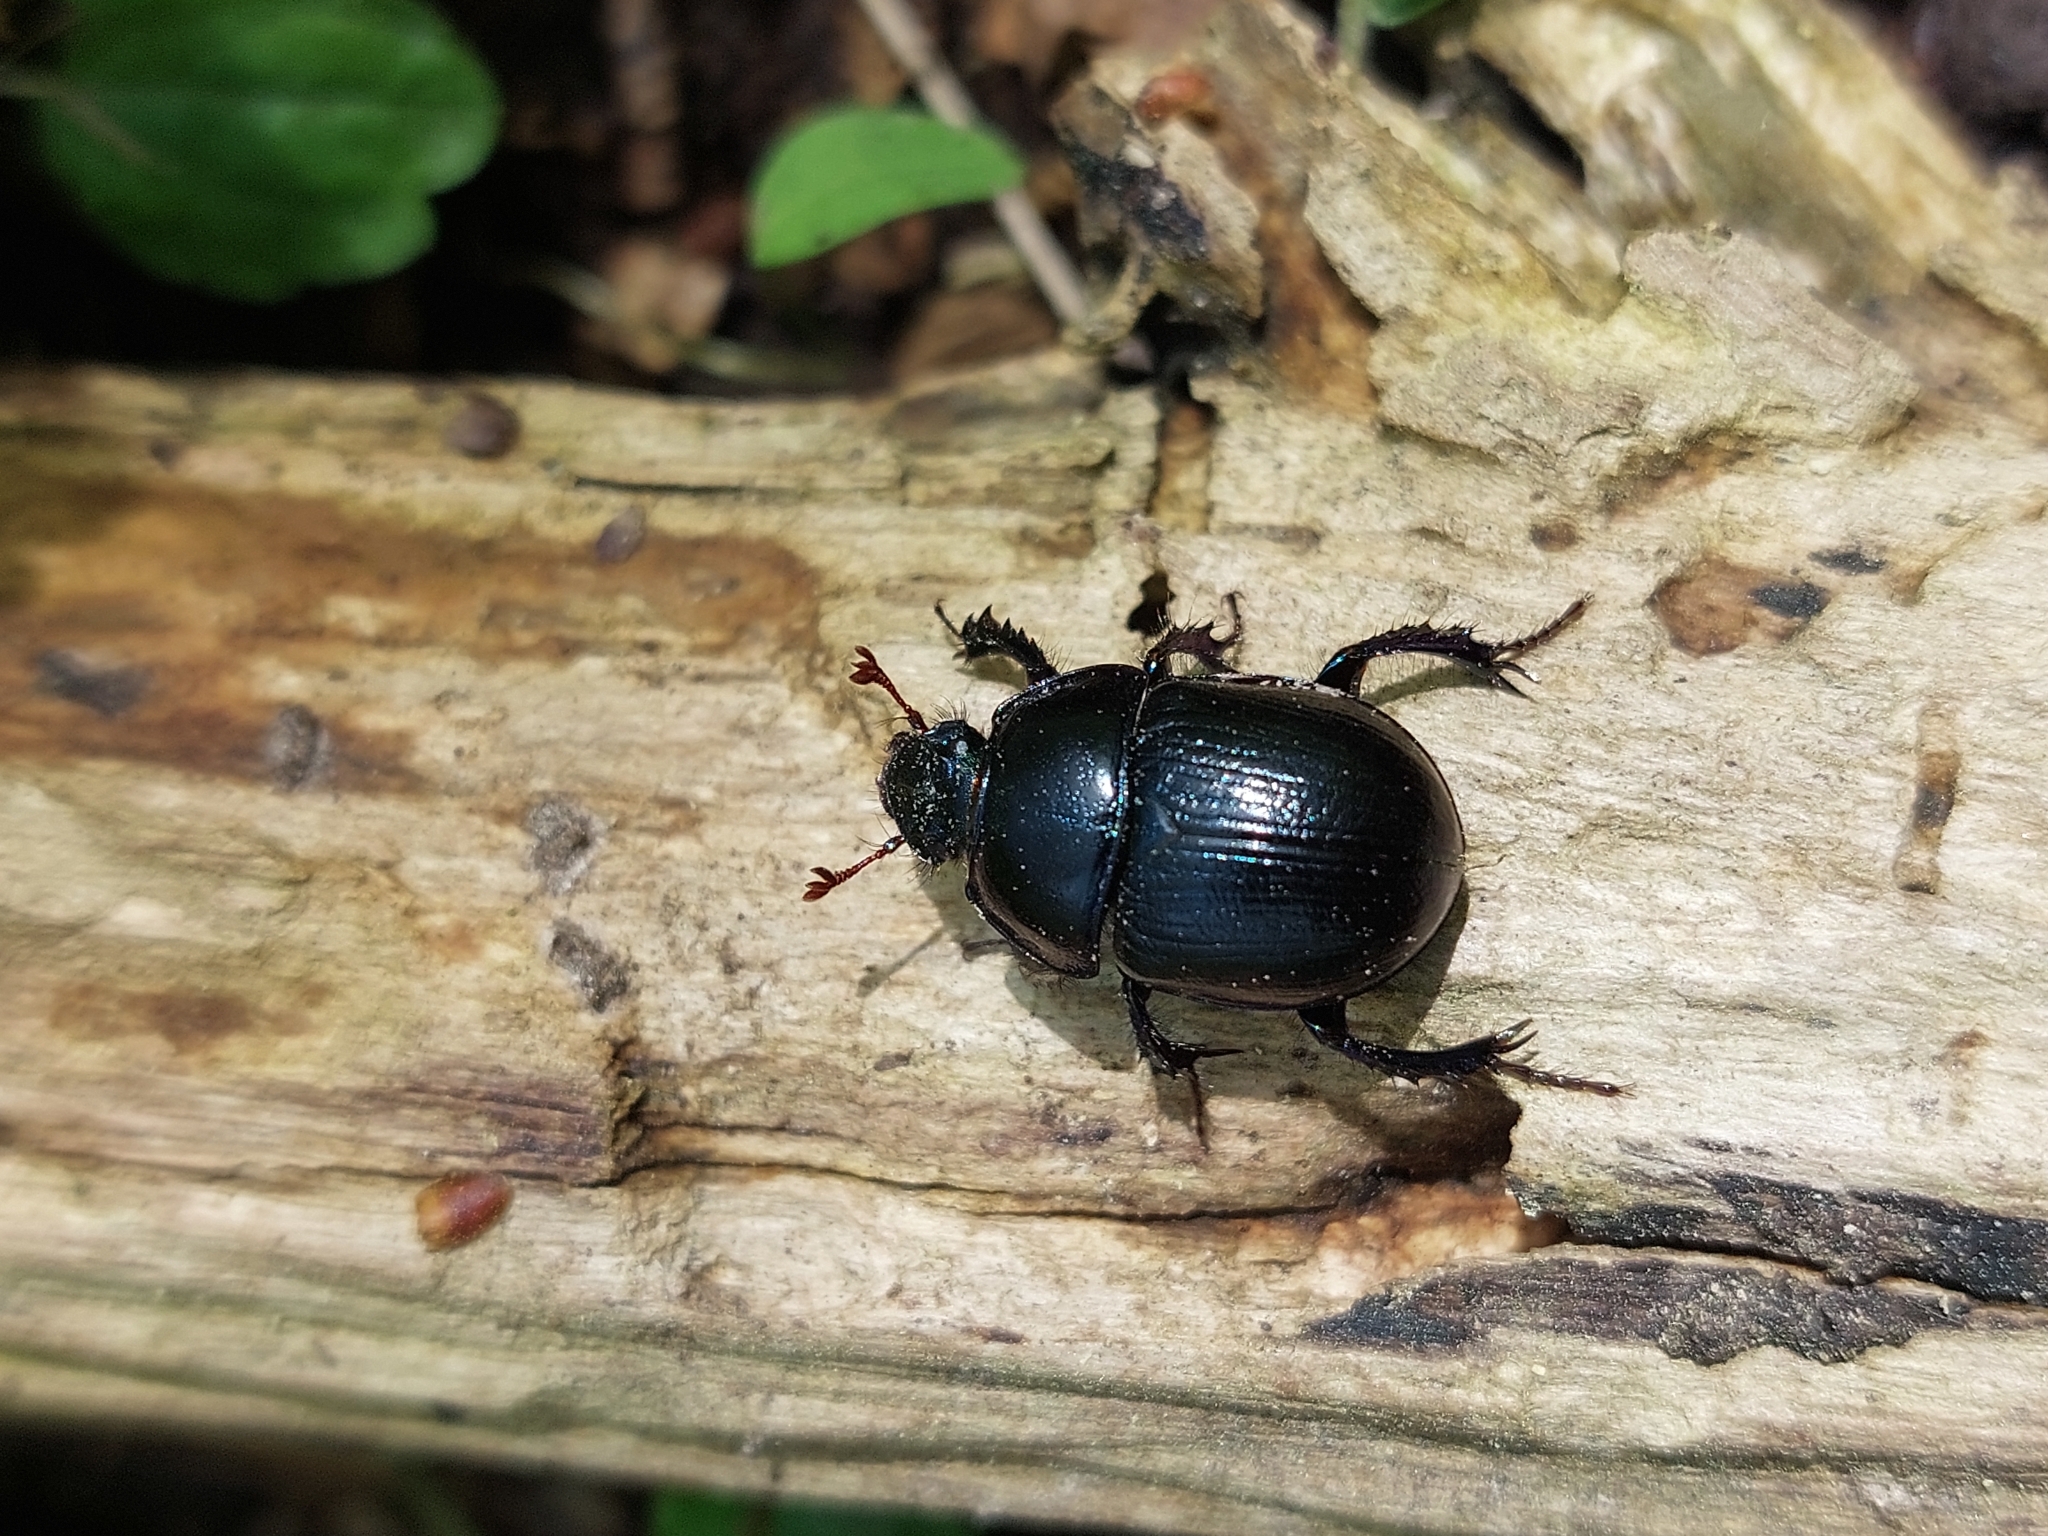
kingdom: Animalia
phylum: Arthropoda
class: Insecta
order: Coleoptera
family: Geotrupidae
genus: Anoplotrupes
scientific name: Anoplotrupes stercorosus
